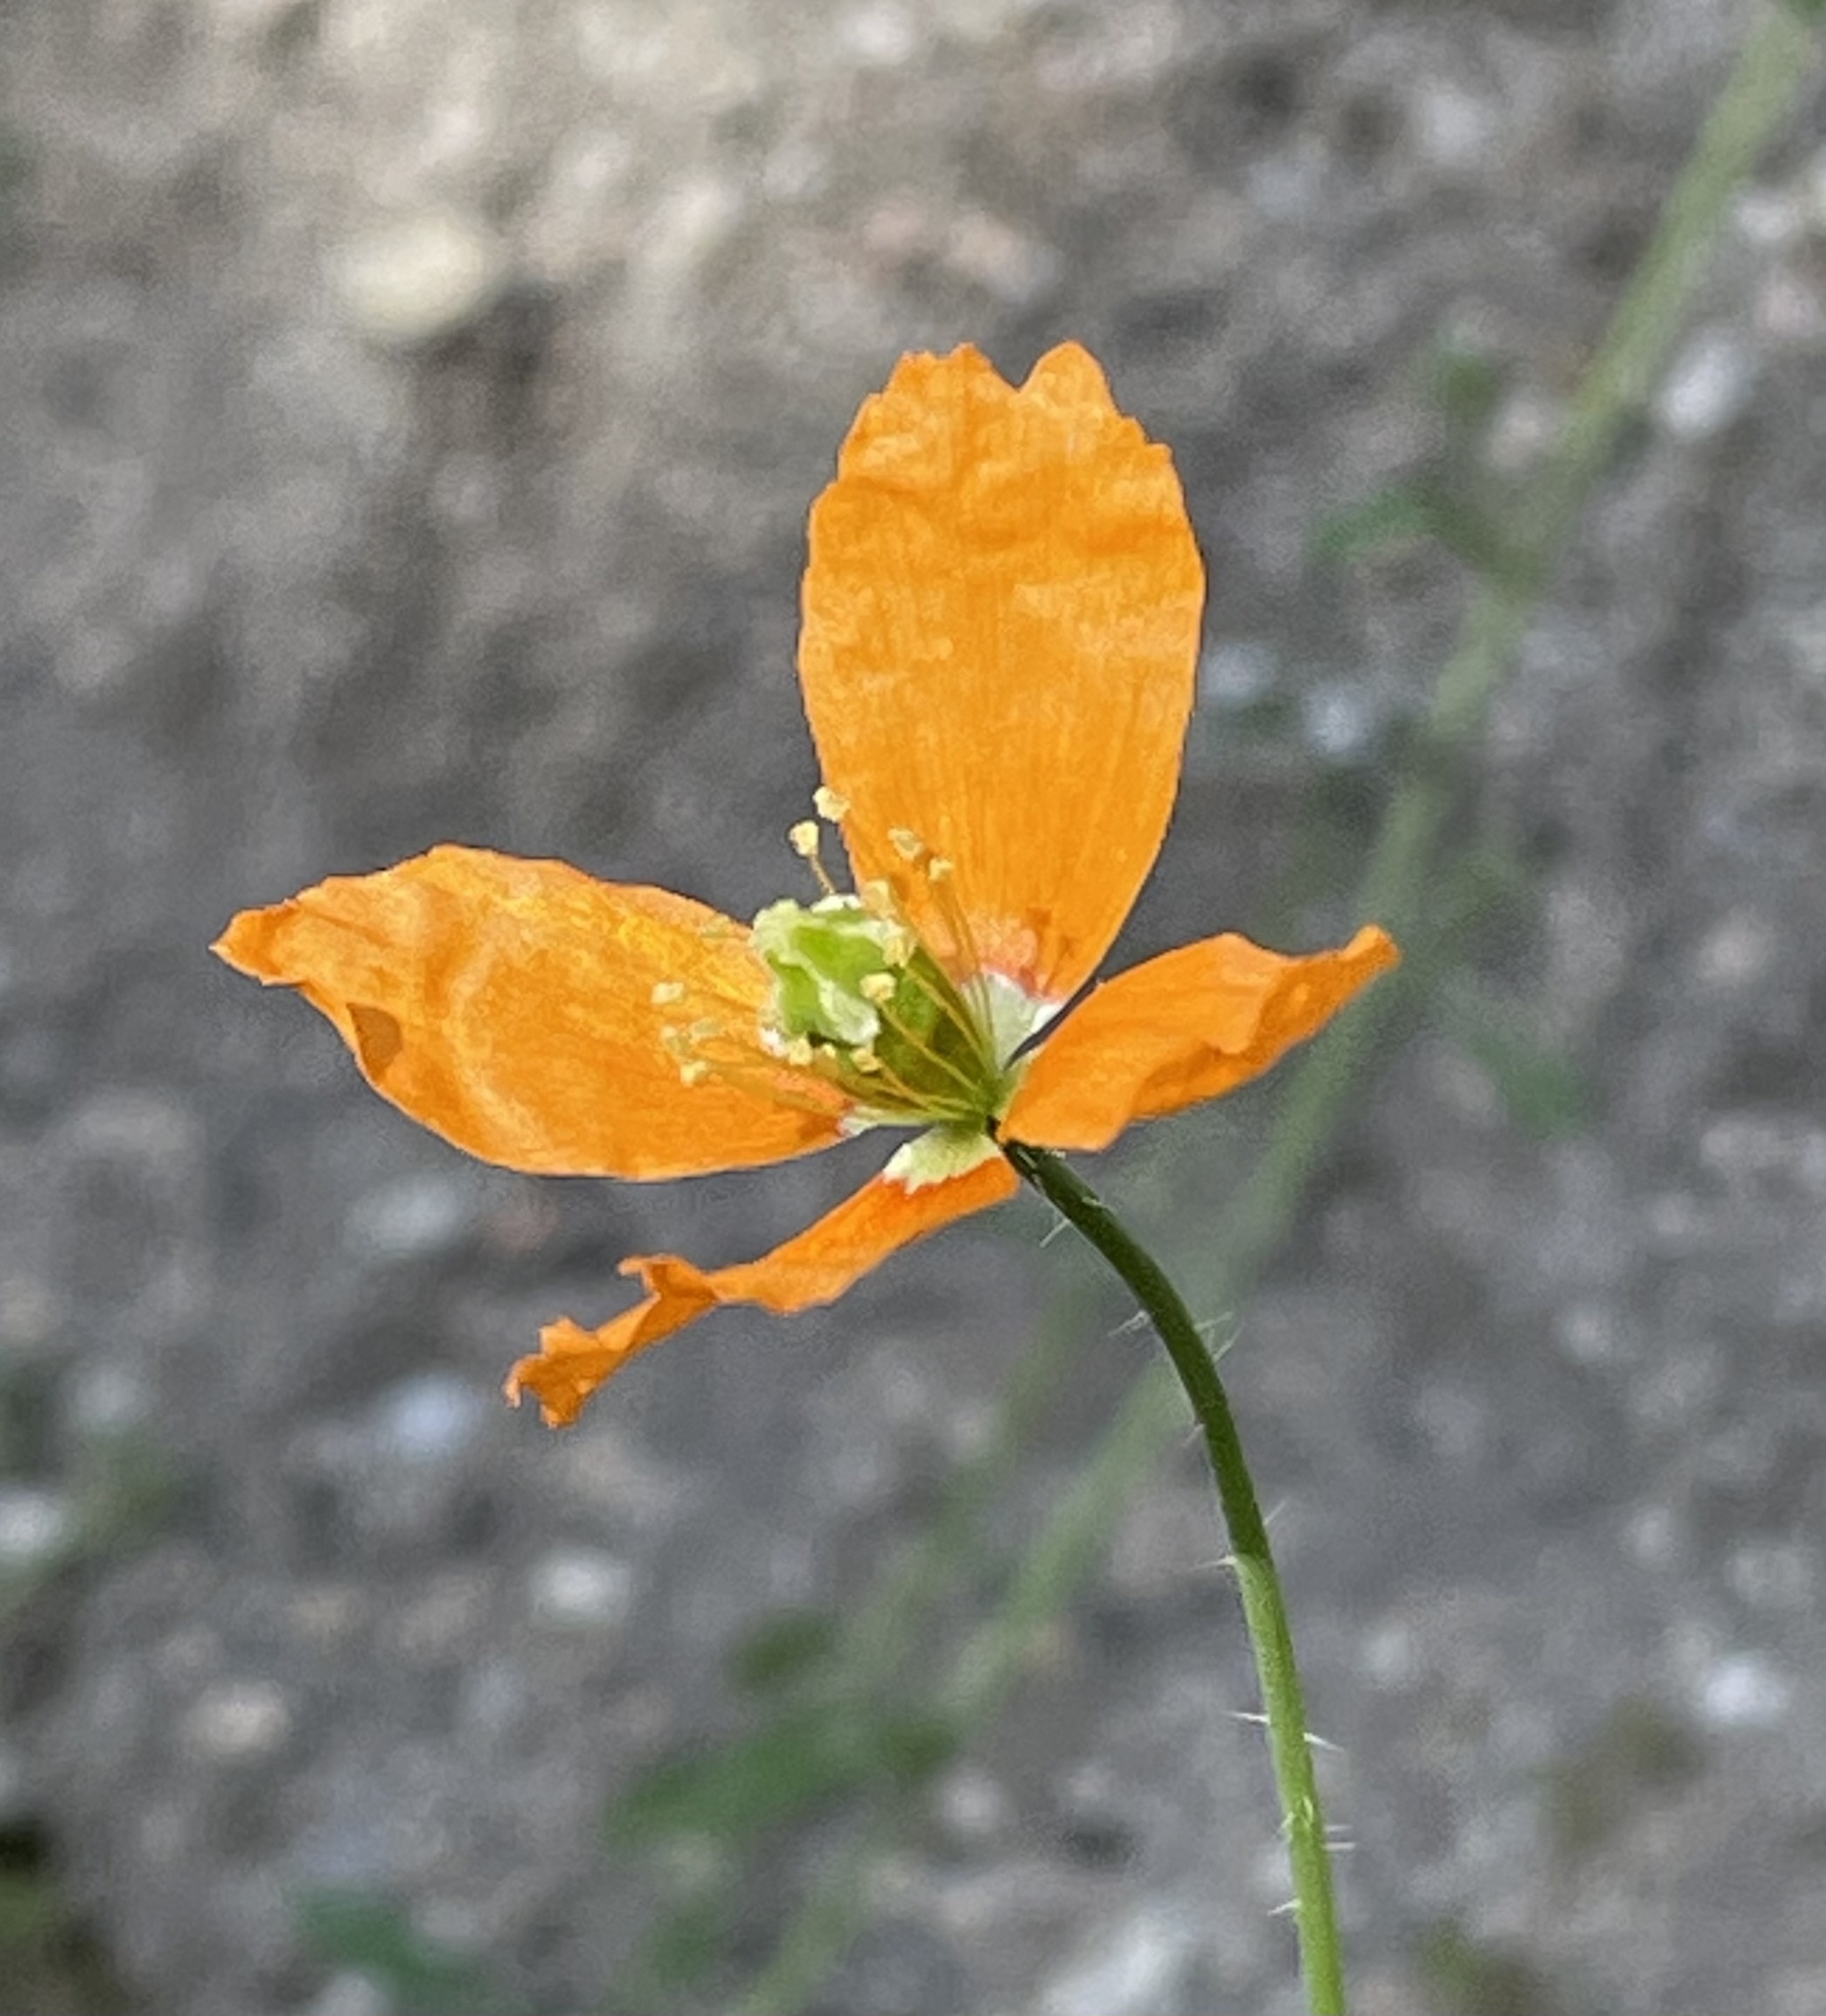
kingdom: Plantae
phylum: Tracheophyta
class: Magnoliopsida
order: Ranunculales
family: Papaveraceae
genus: Papaver
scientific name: Papaver californicum
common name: Fire poppy
